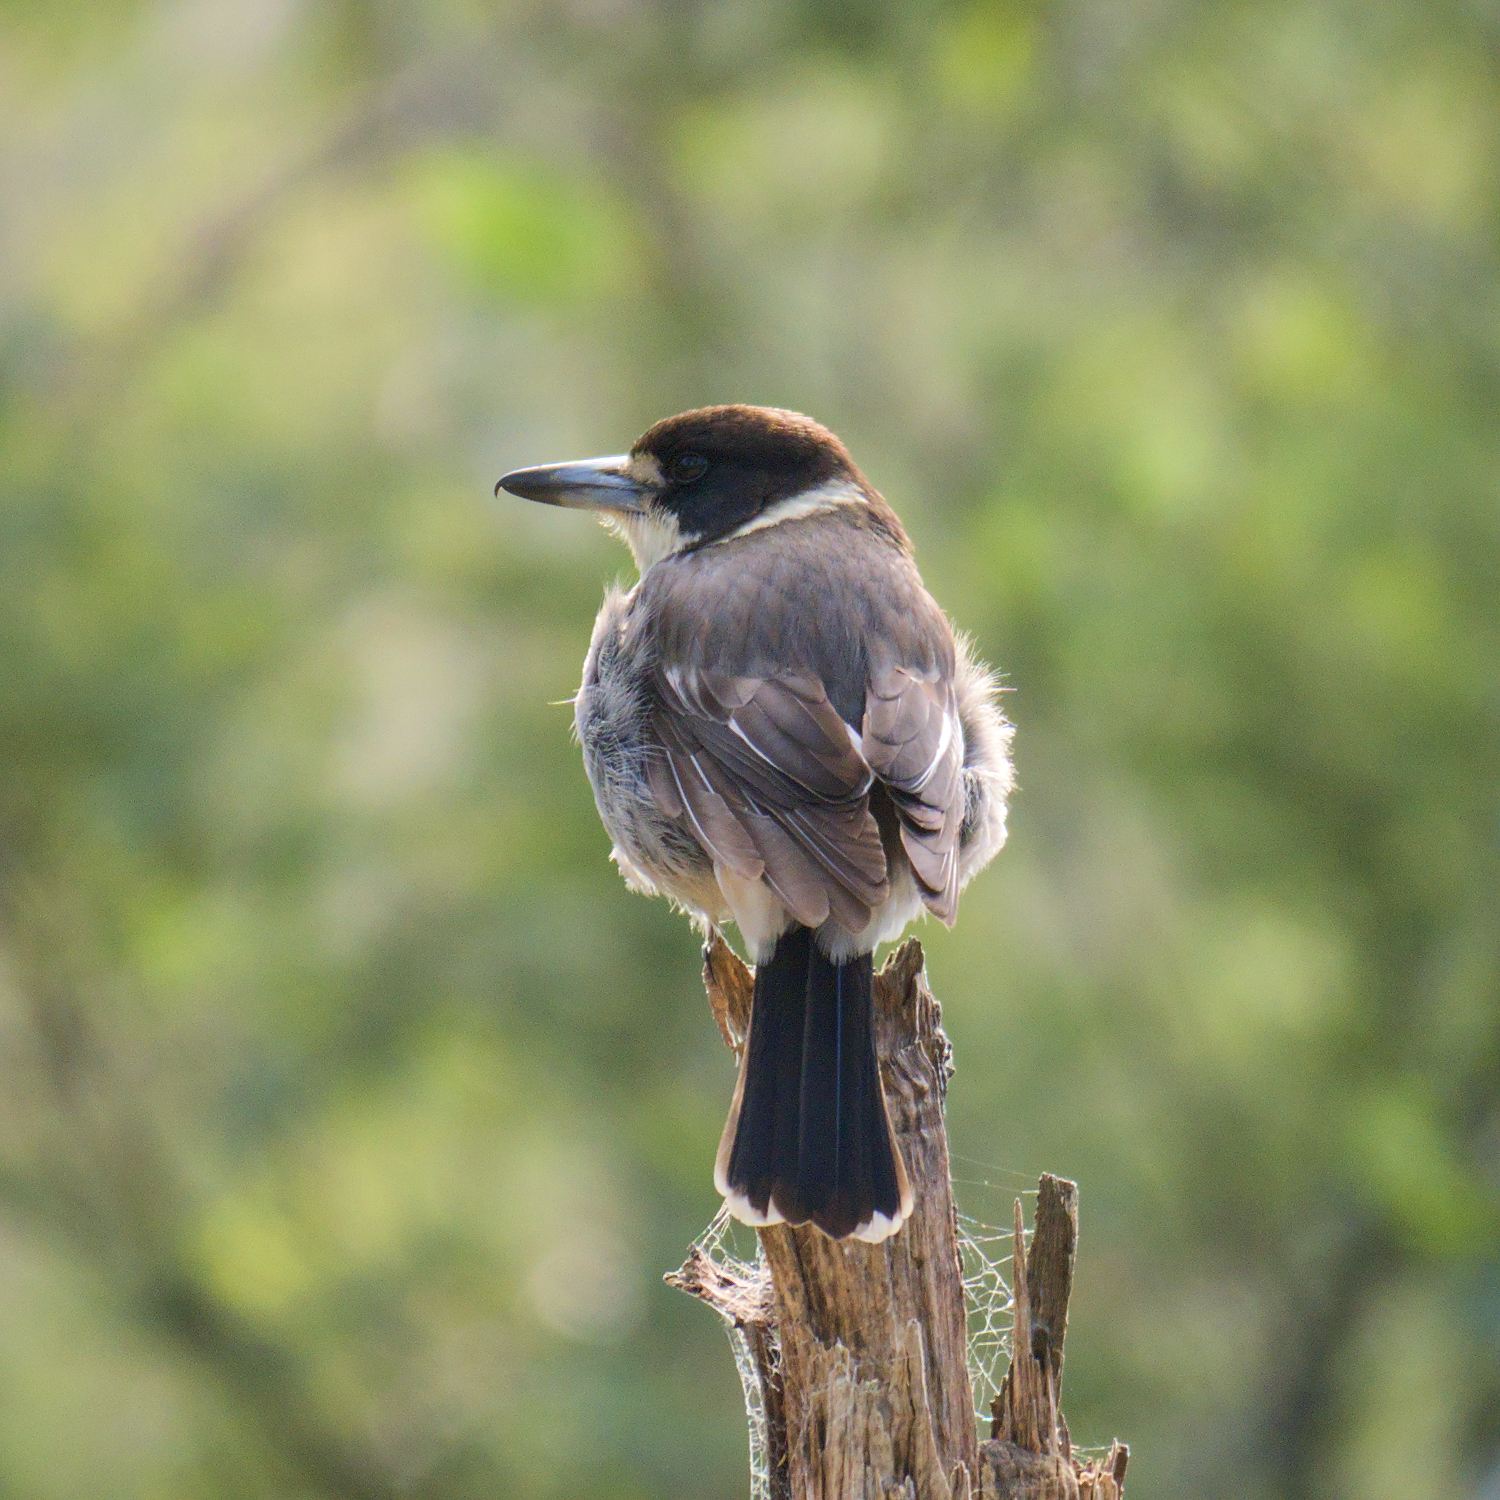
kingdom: Animalia
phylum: Chordata
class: Aves
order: Passeriformes
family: Cracticidae
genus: Cracticus
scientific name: Cracticus torquatus
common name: Grey butcherbird
